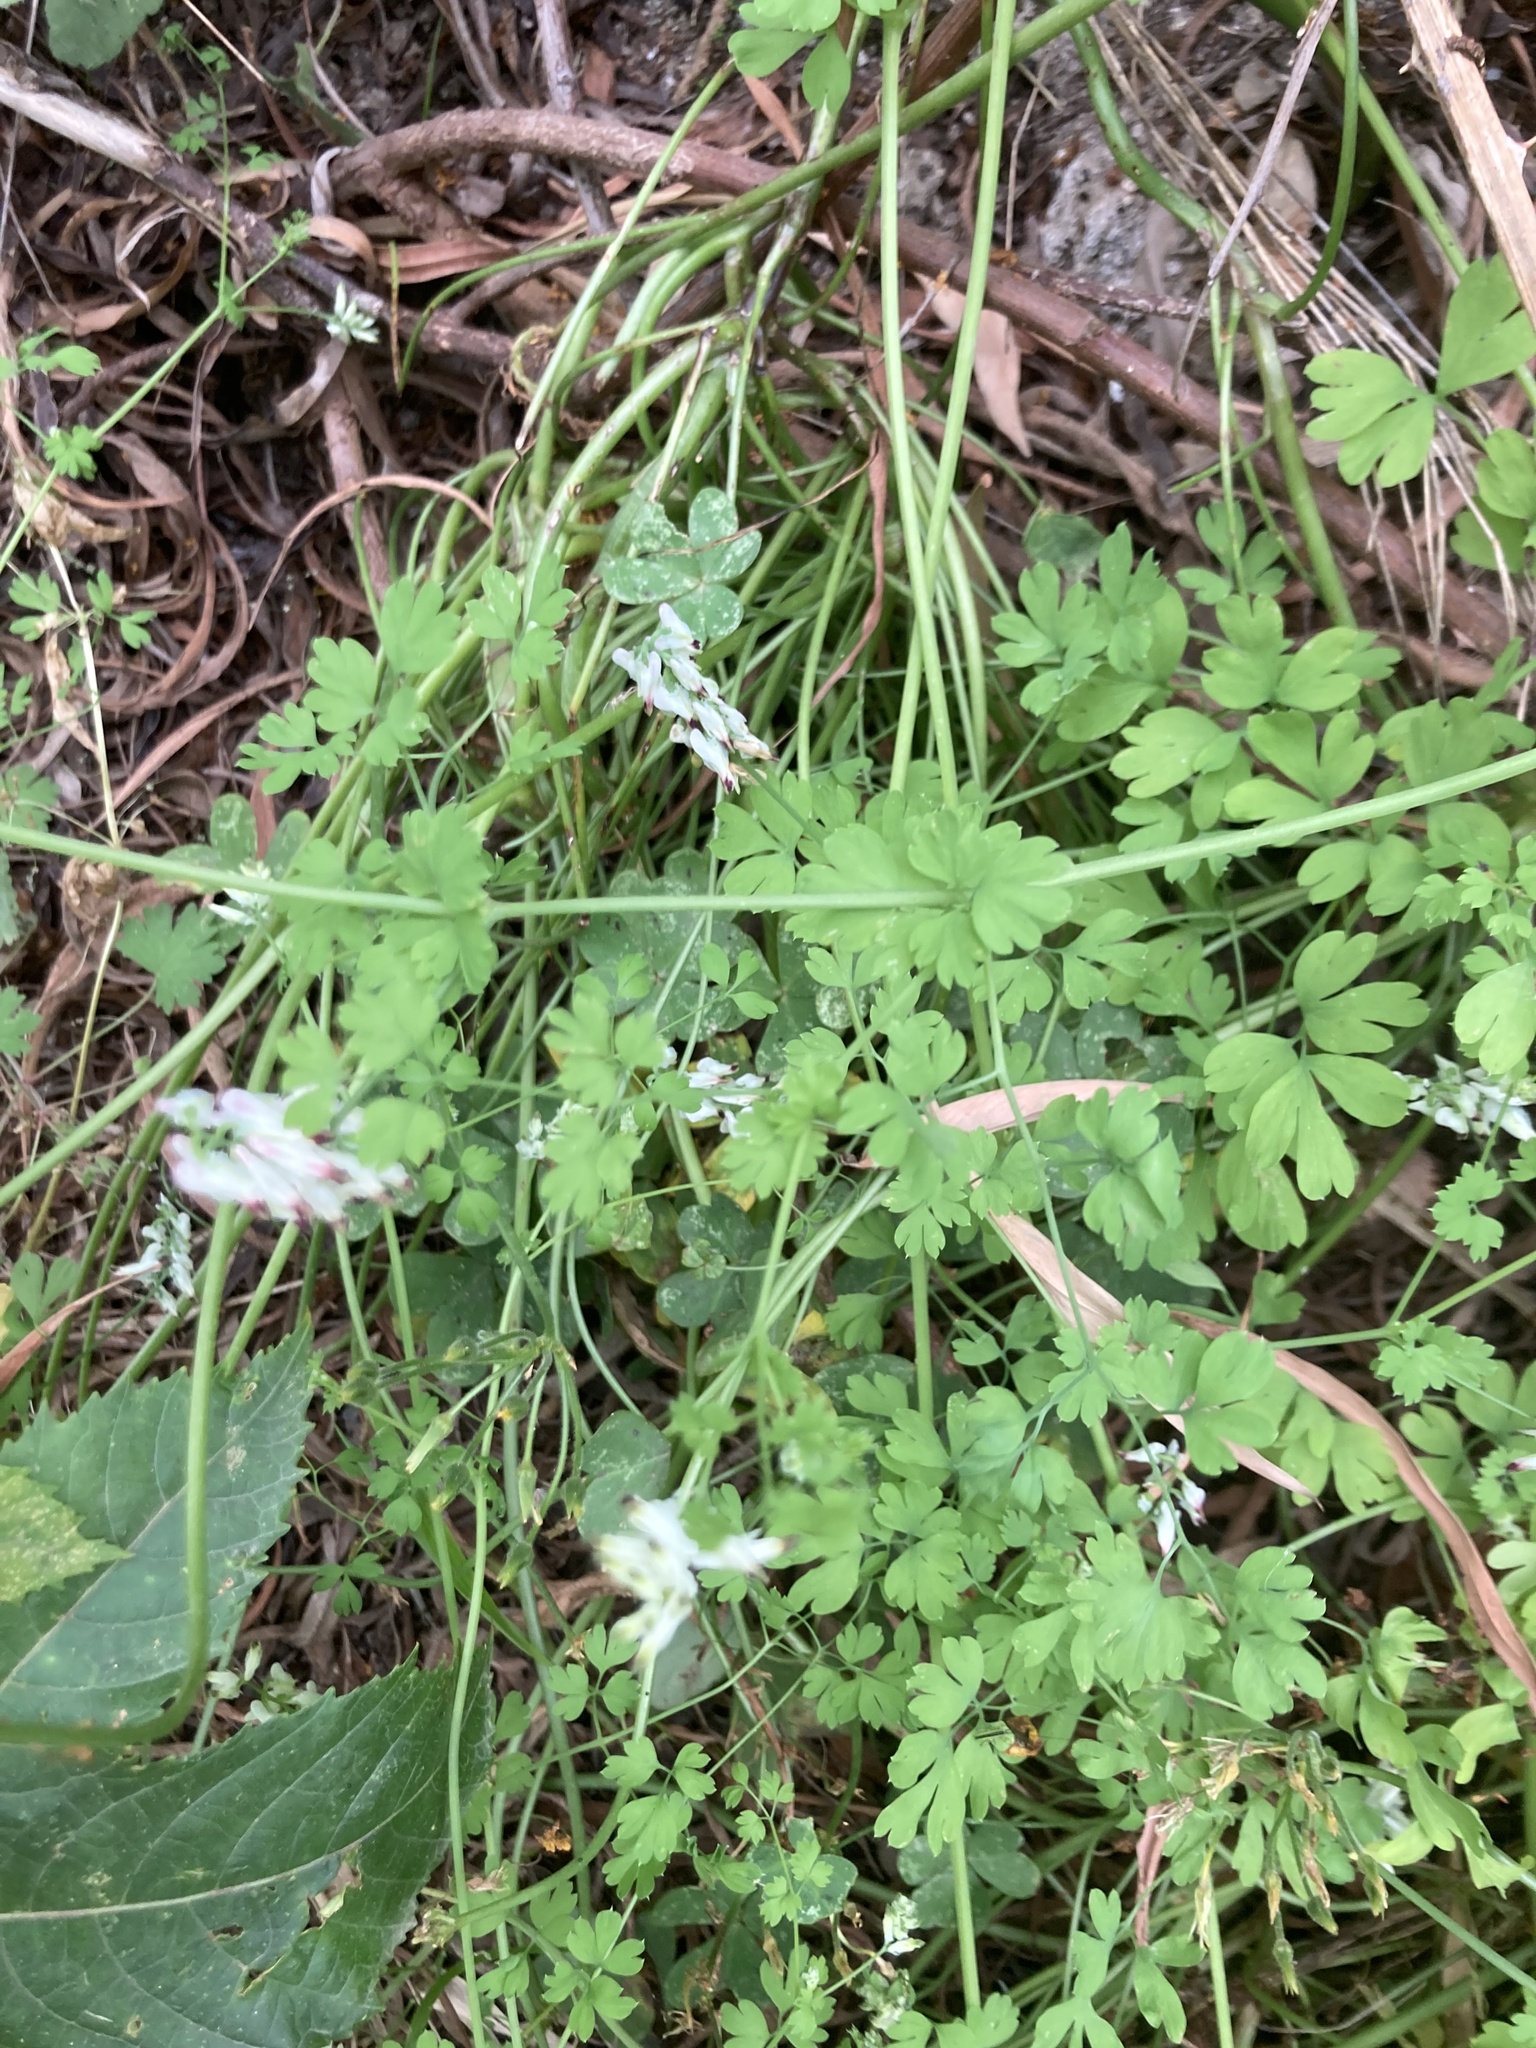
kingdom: Plantae
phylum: Tracheophyta
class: Magnoliopsida
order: Ranunculales
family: Papaveraceae
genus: Fumaria
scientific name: Fumaria capreolata
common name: White ramping-fumitory
